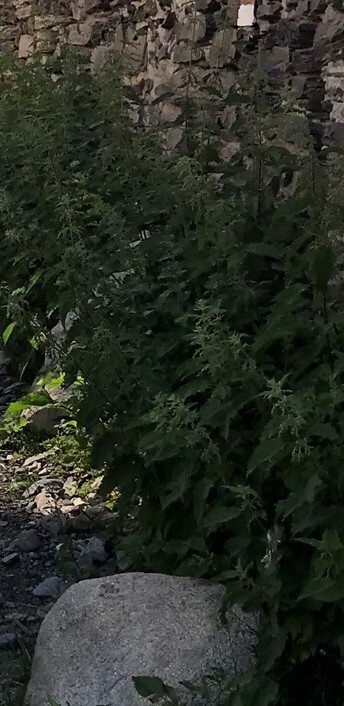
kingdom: Plantae
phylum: Tracheophyta
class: Magnoliopsida
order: Rosales
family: Urticaceae
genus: Urtica
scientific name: Urtica dioica
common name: Common nettle
